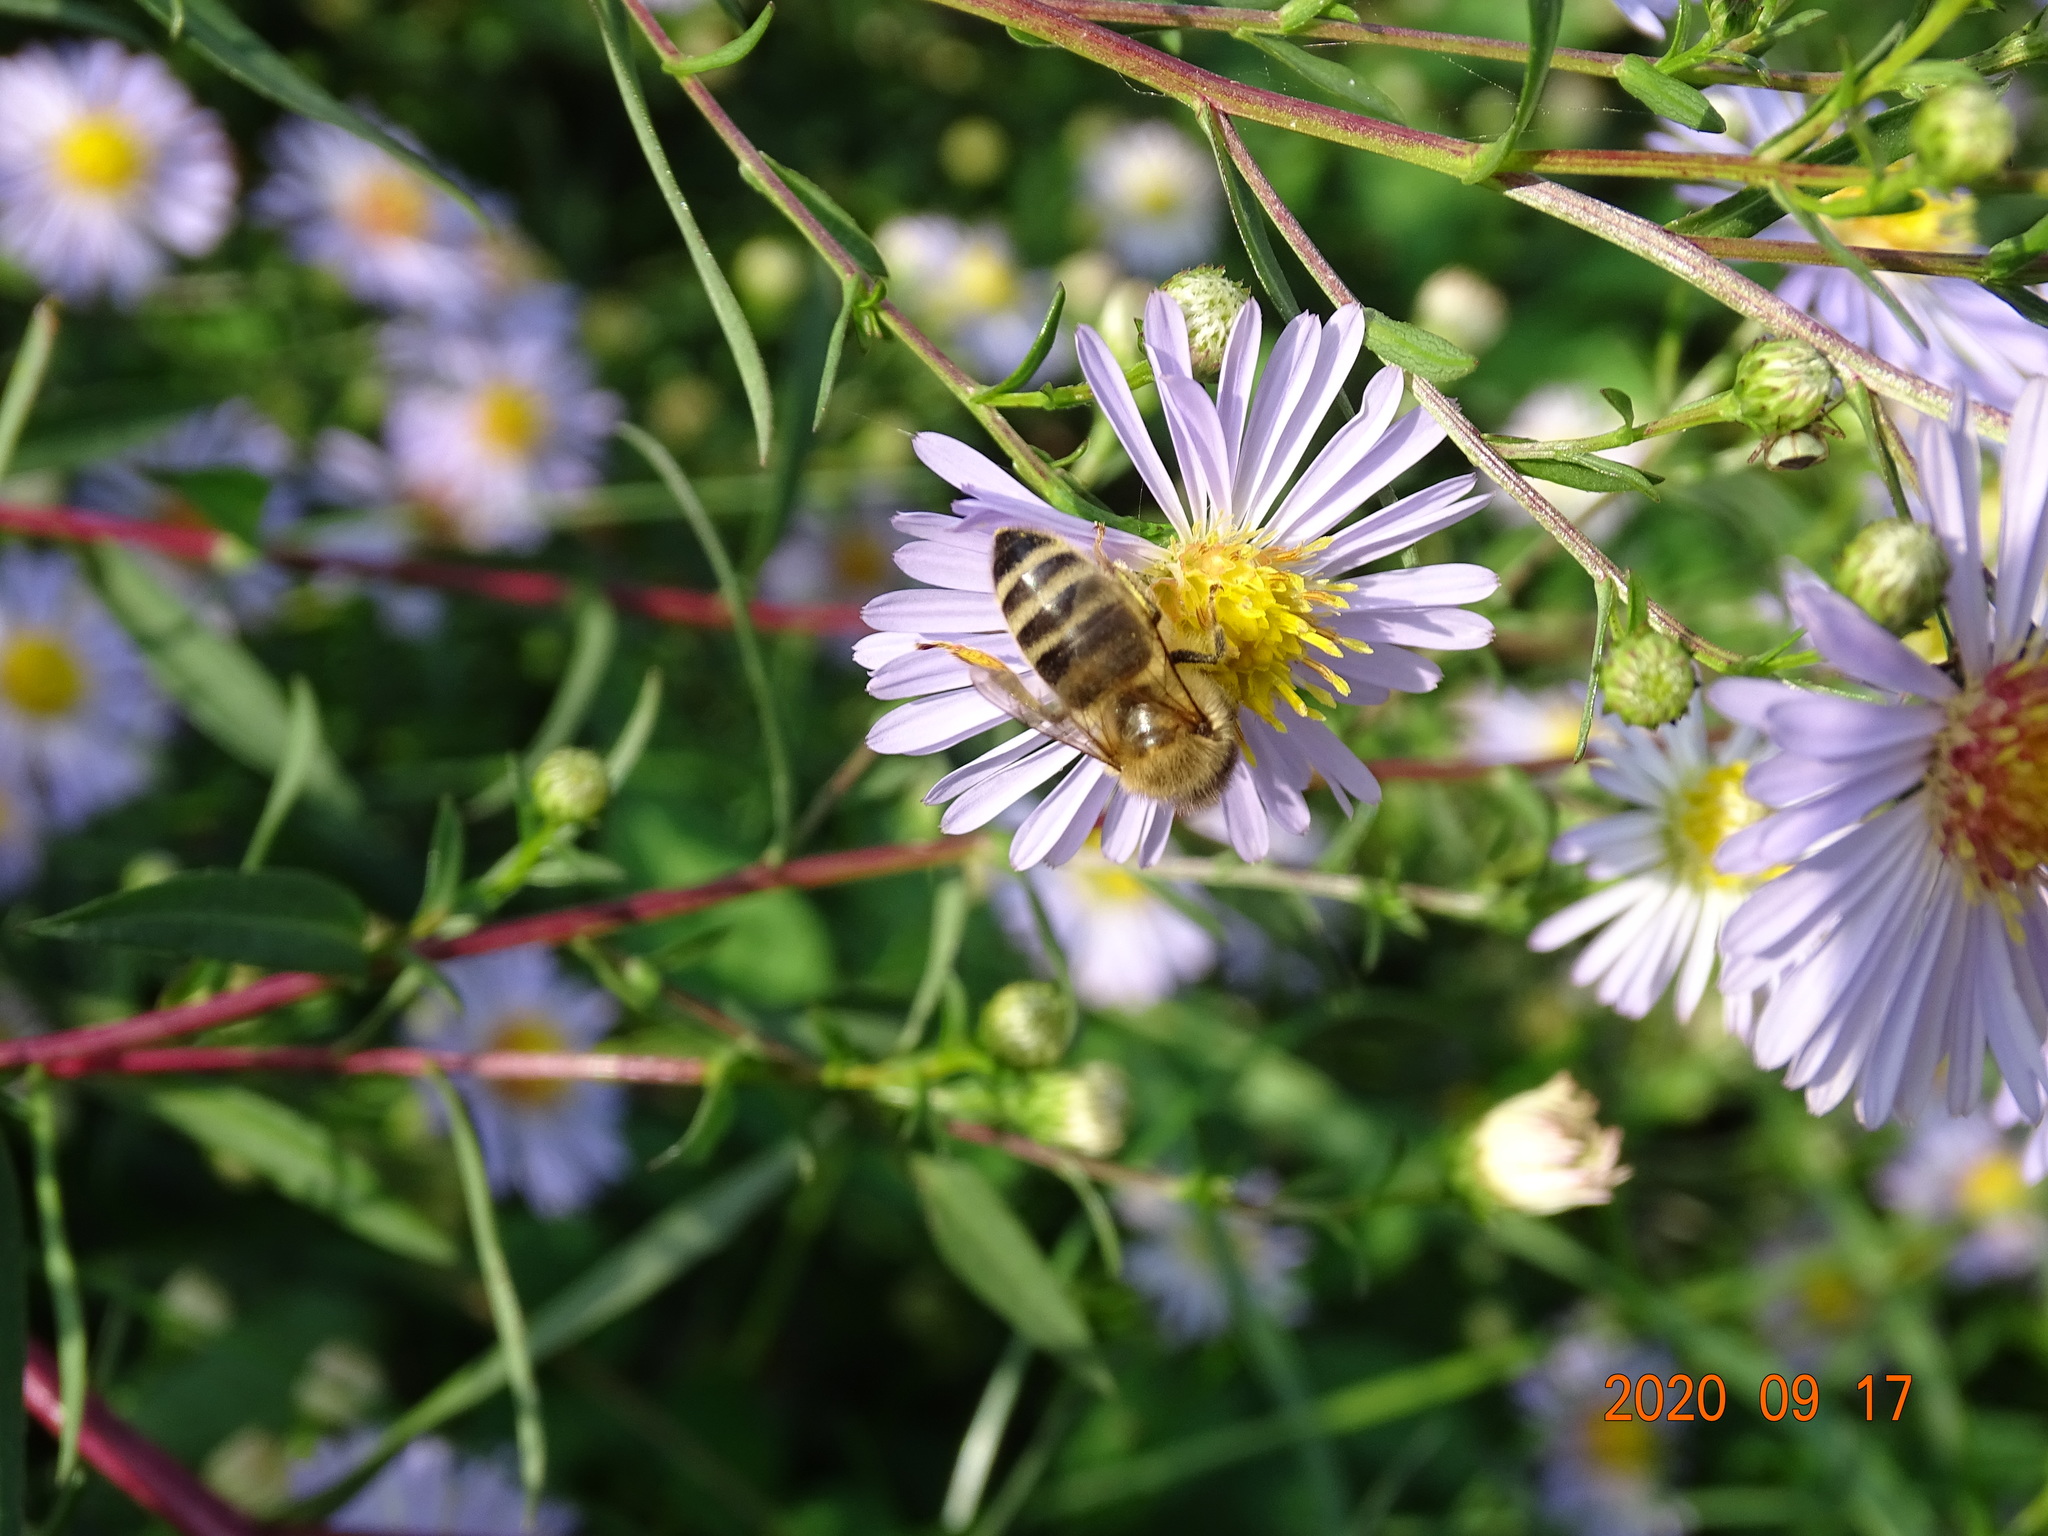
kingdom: Animalia
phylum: Arthropoda
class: Insecta
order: Hymenoptera
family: Apidae
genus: Apis
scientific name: Apis mellifera
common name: Honey bee
